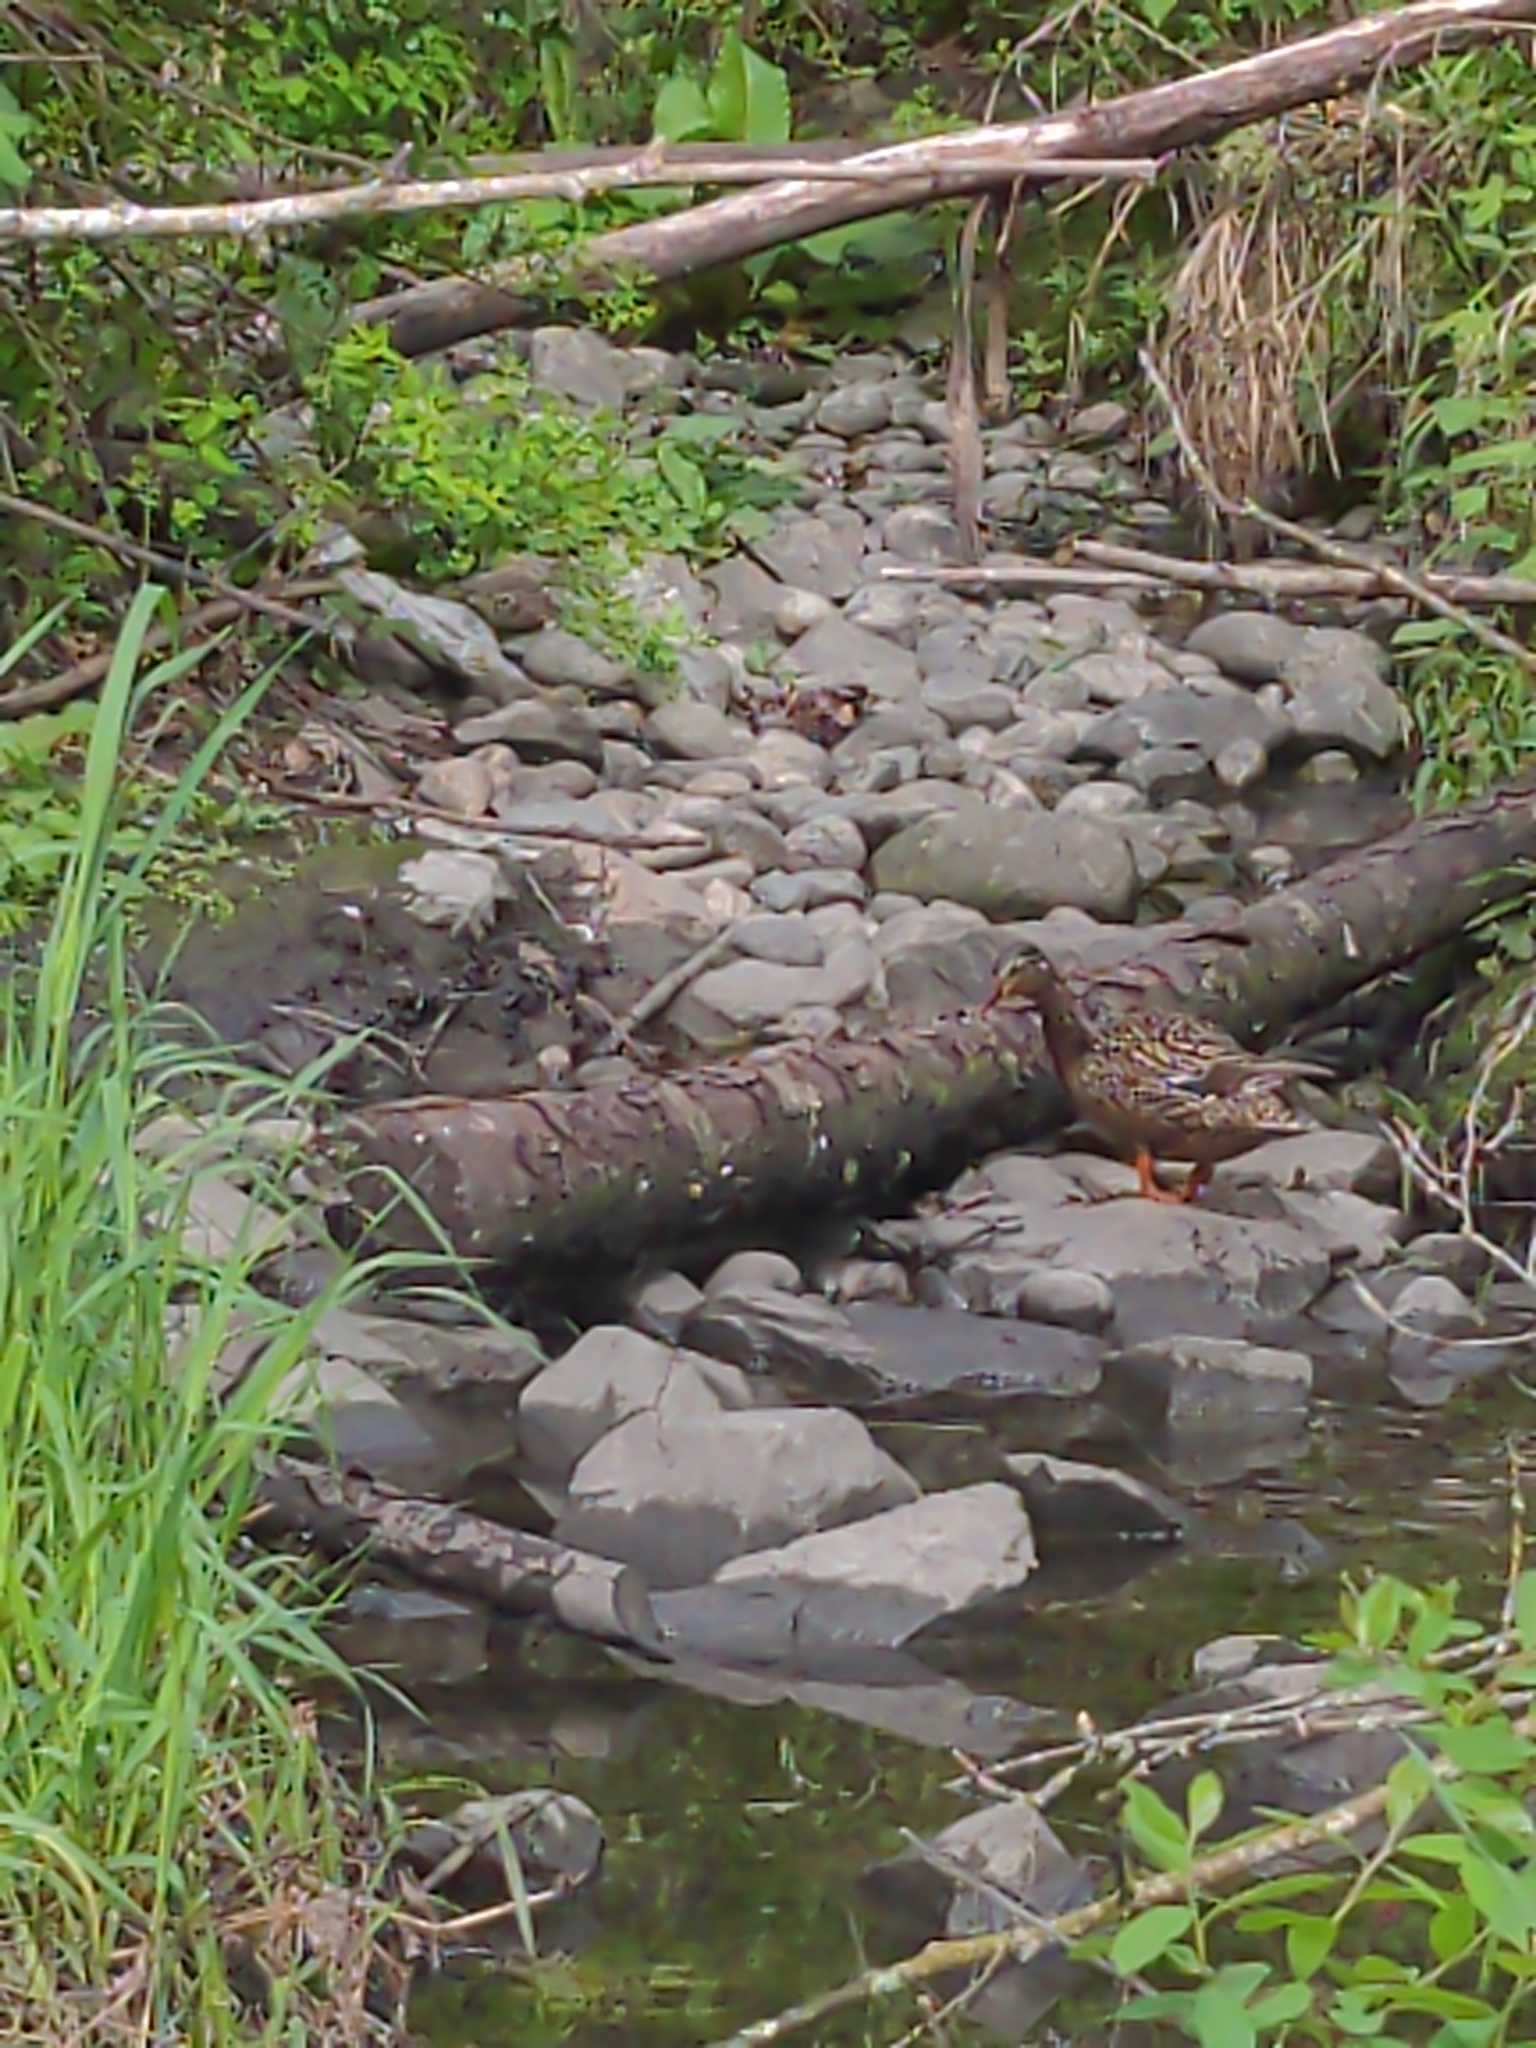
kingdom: Animalia
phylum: Chordata
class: Aves
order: Anseriformes
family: Anatidae
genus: Anas
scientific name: Anas platyrhynchos
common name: Mallard
